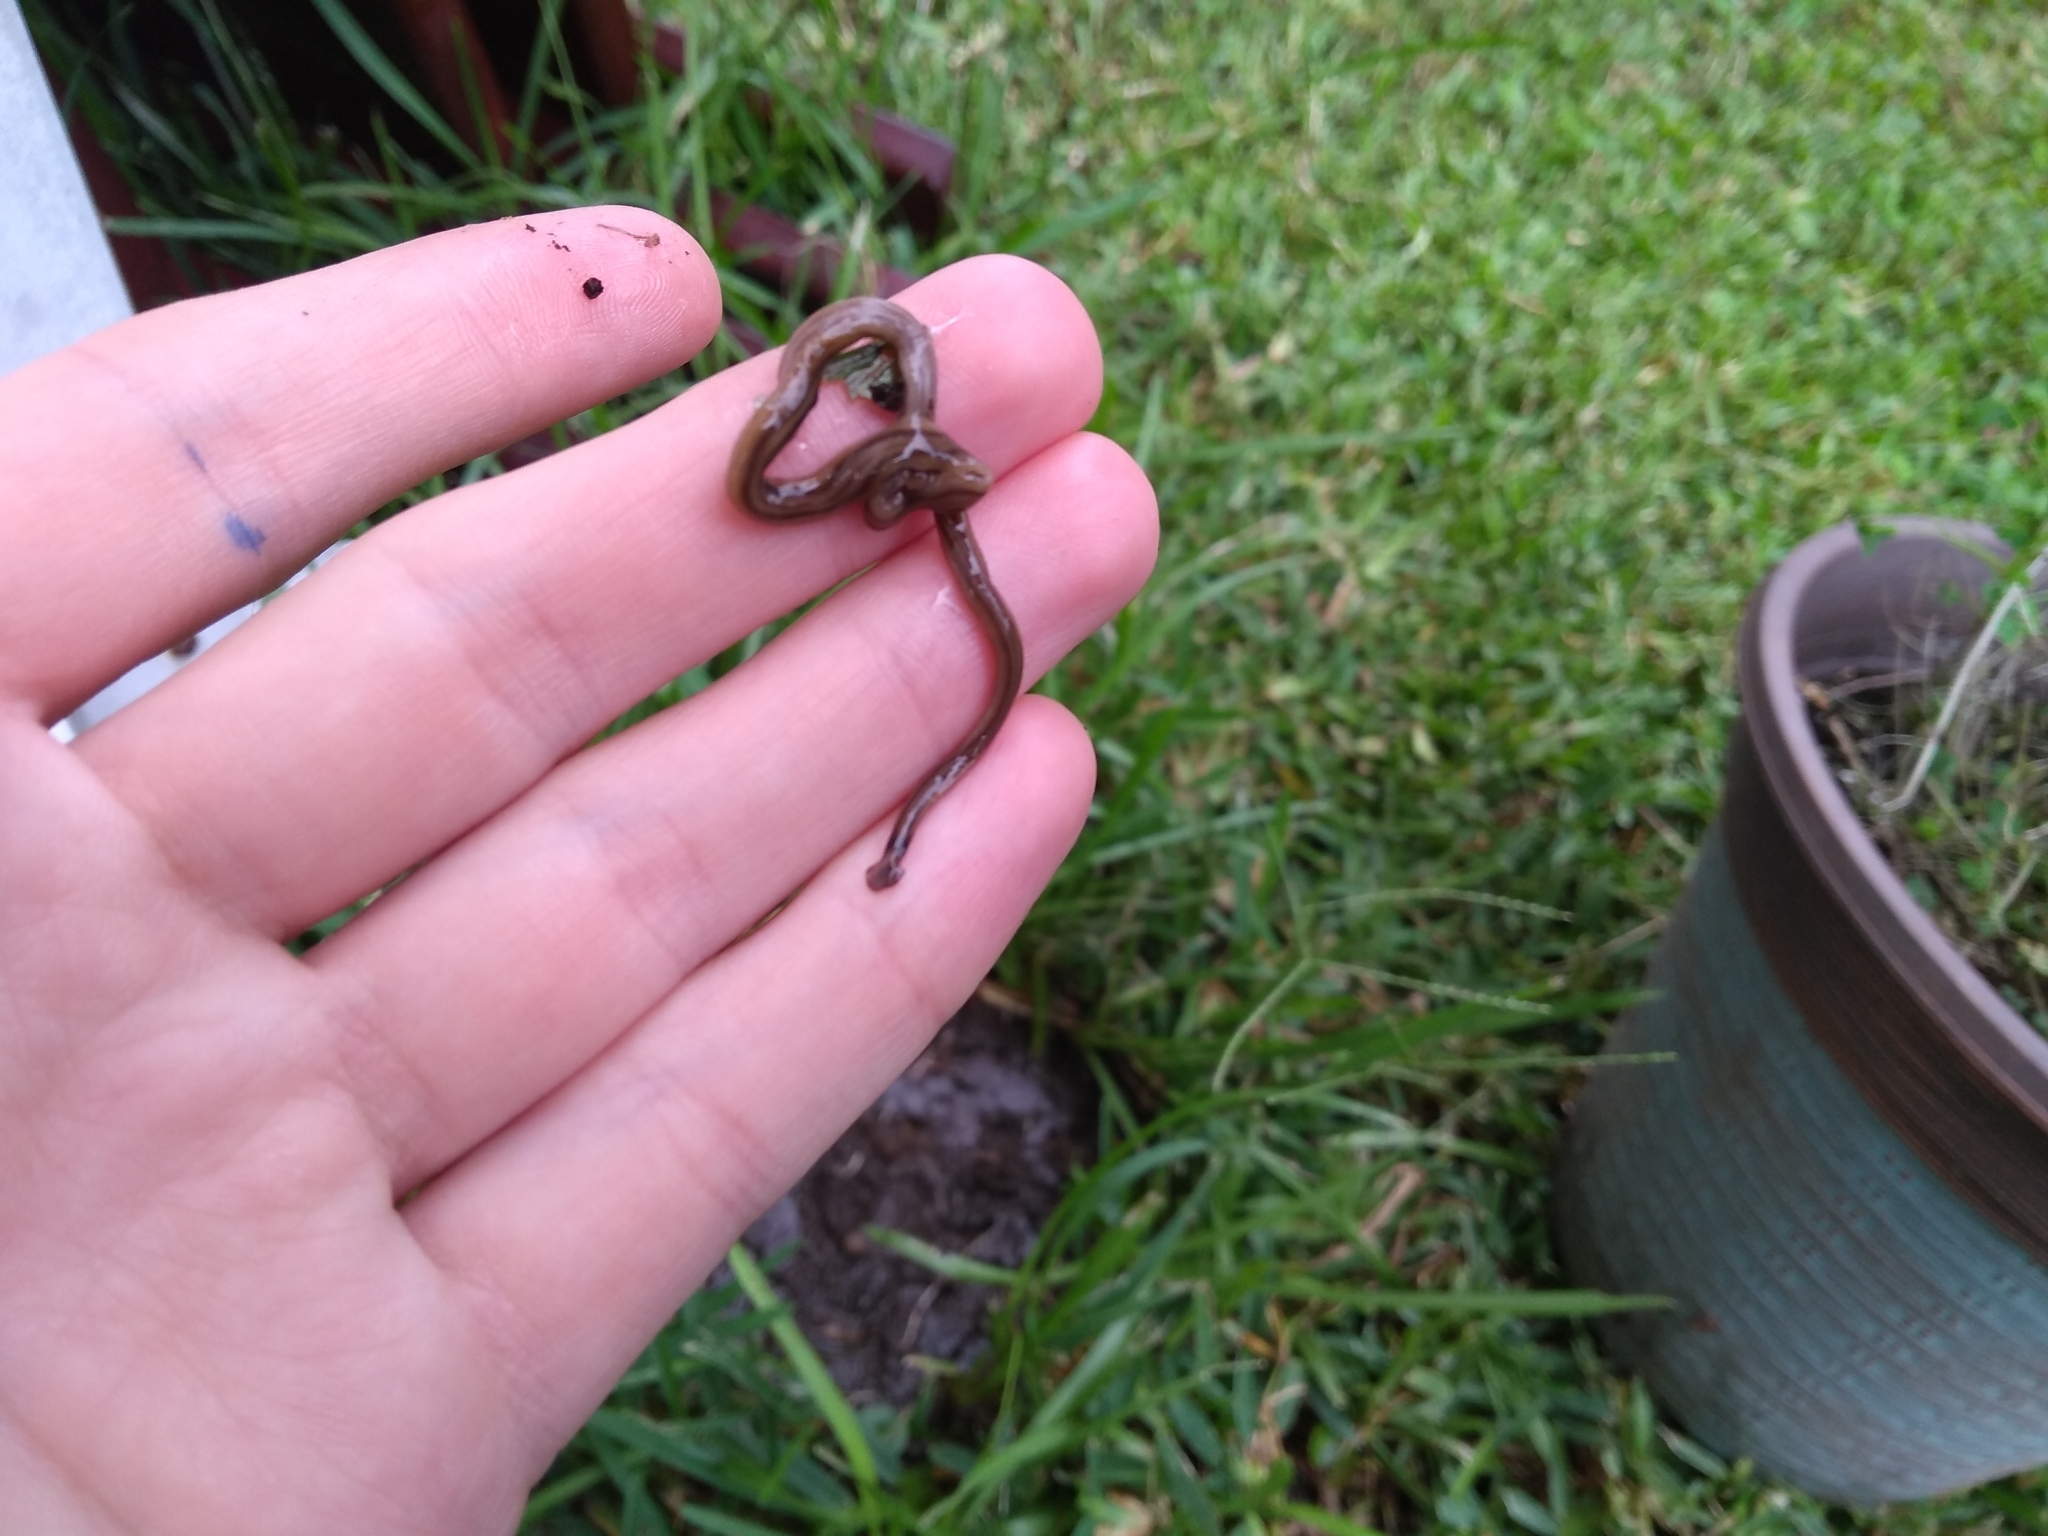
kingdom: Animalia
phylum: Platyhelminthes
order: Tricladida
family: Geoplanidae
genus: Bipalium
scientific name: Bipalium kewense
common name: Hammerhead flatworm
